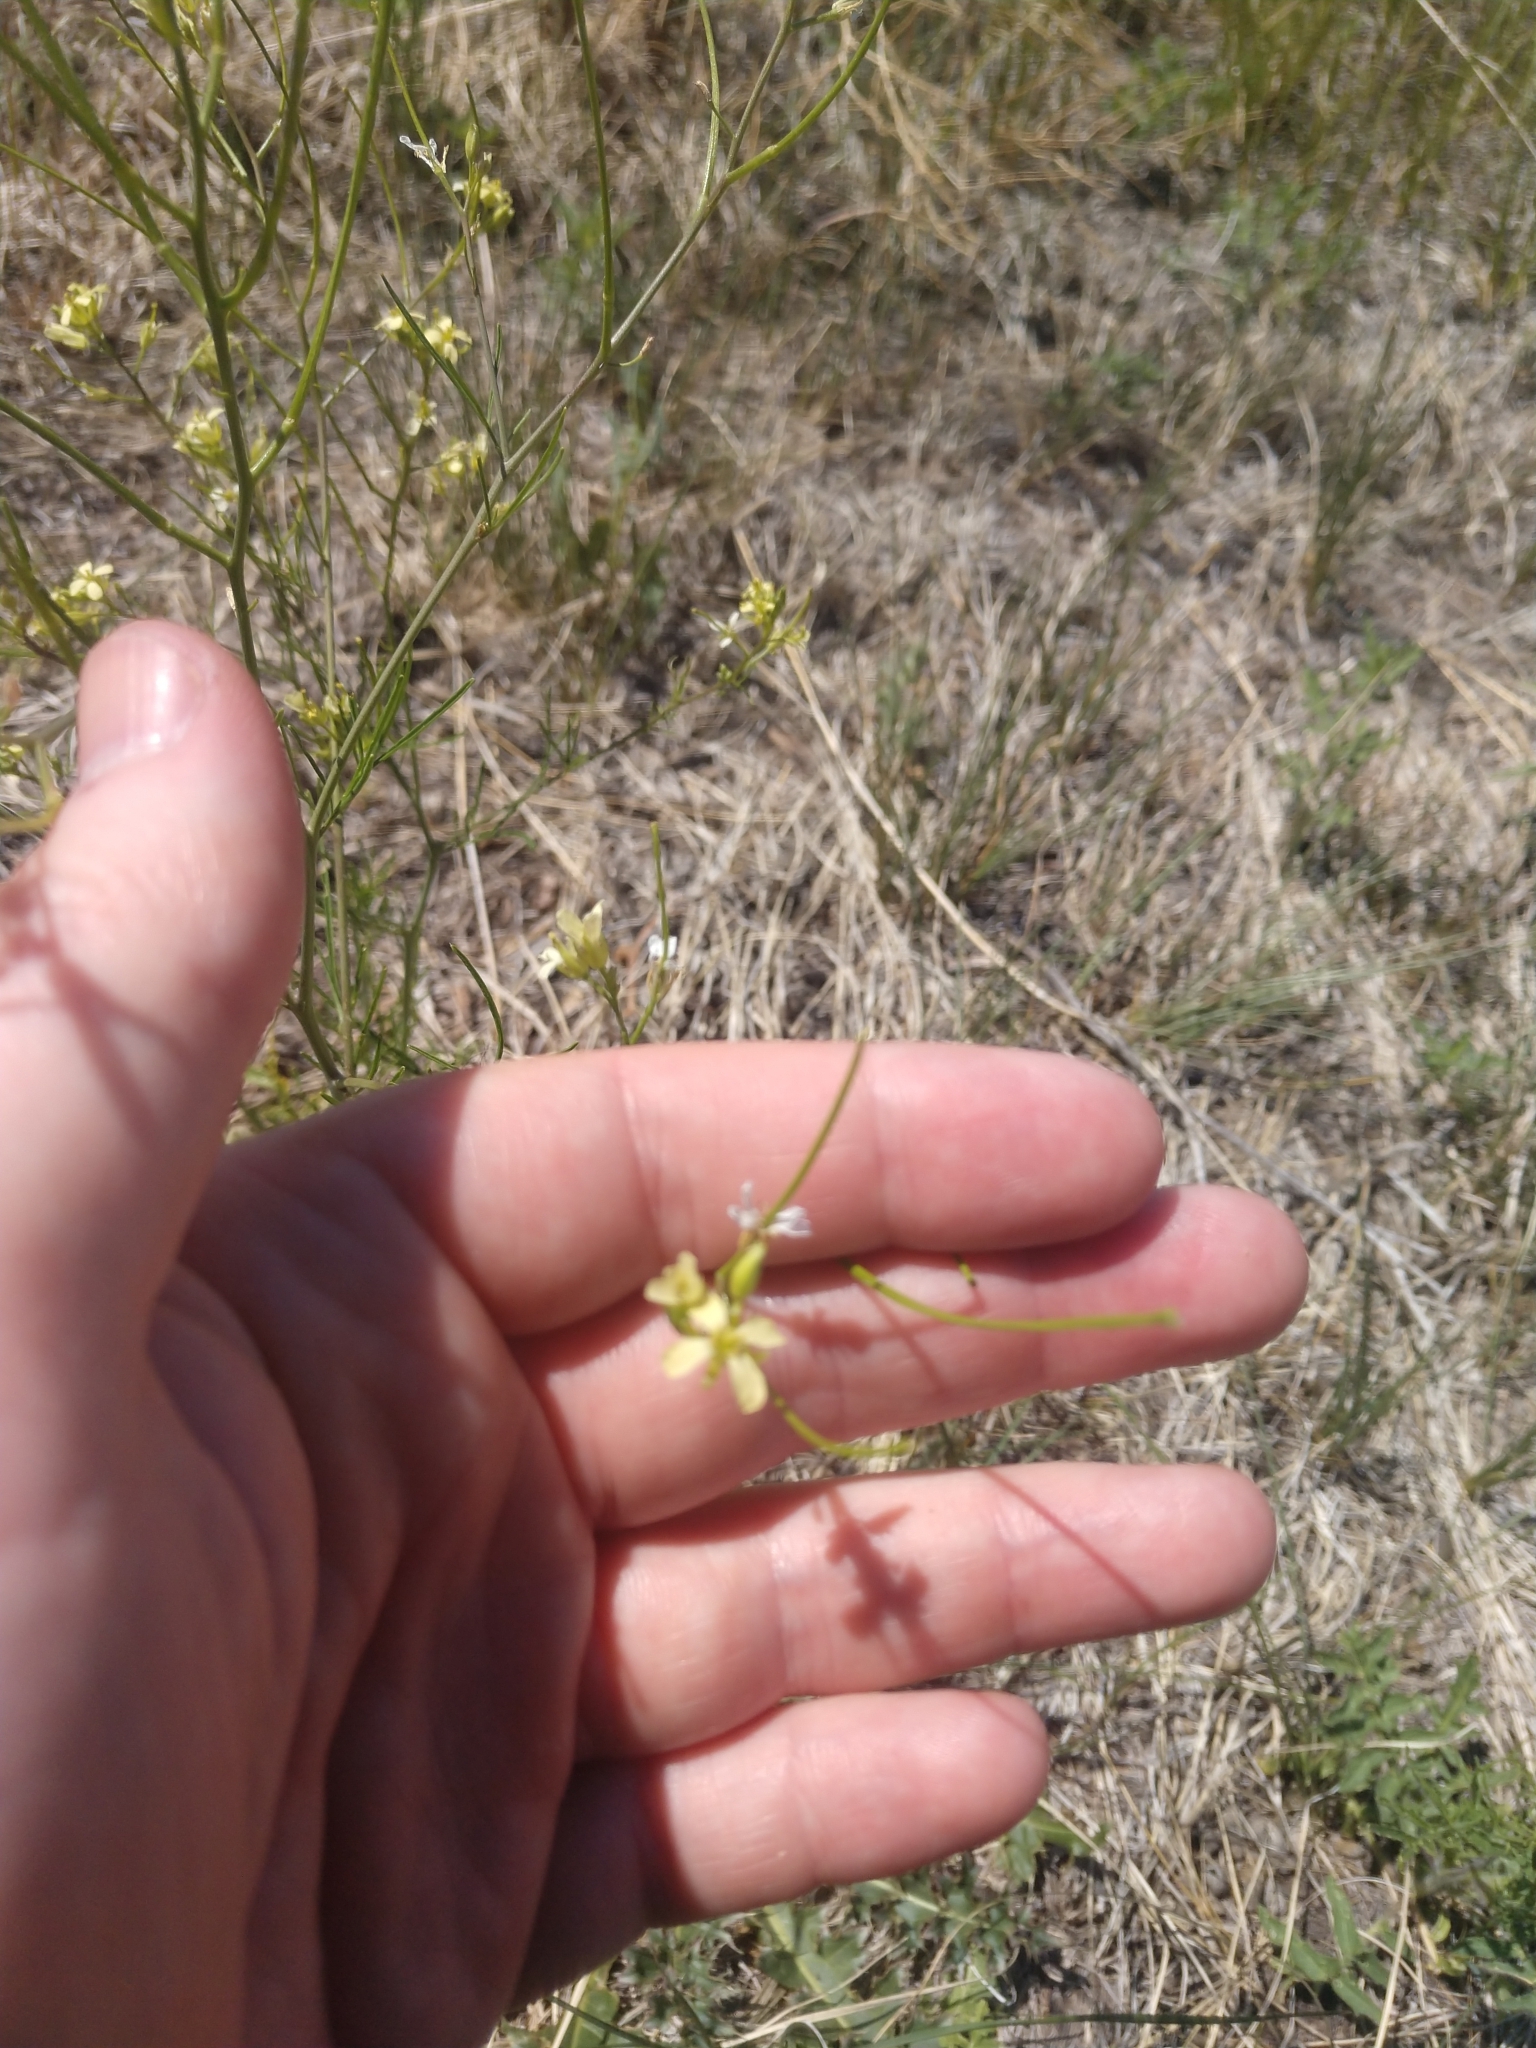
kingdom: Plantae
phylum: Tracheophyta
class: Magnoliopsida
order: Brassicales
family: Brassicaceae
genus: Sisymbrium
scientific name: Sisymbrium altissimum
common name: Tall rocket
